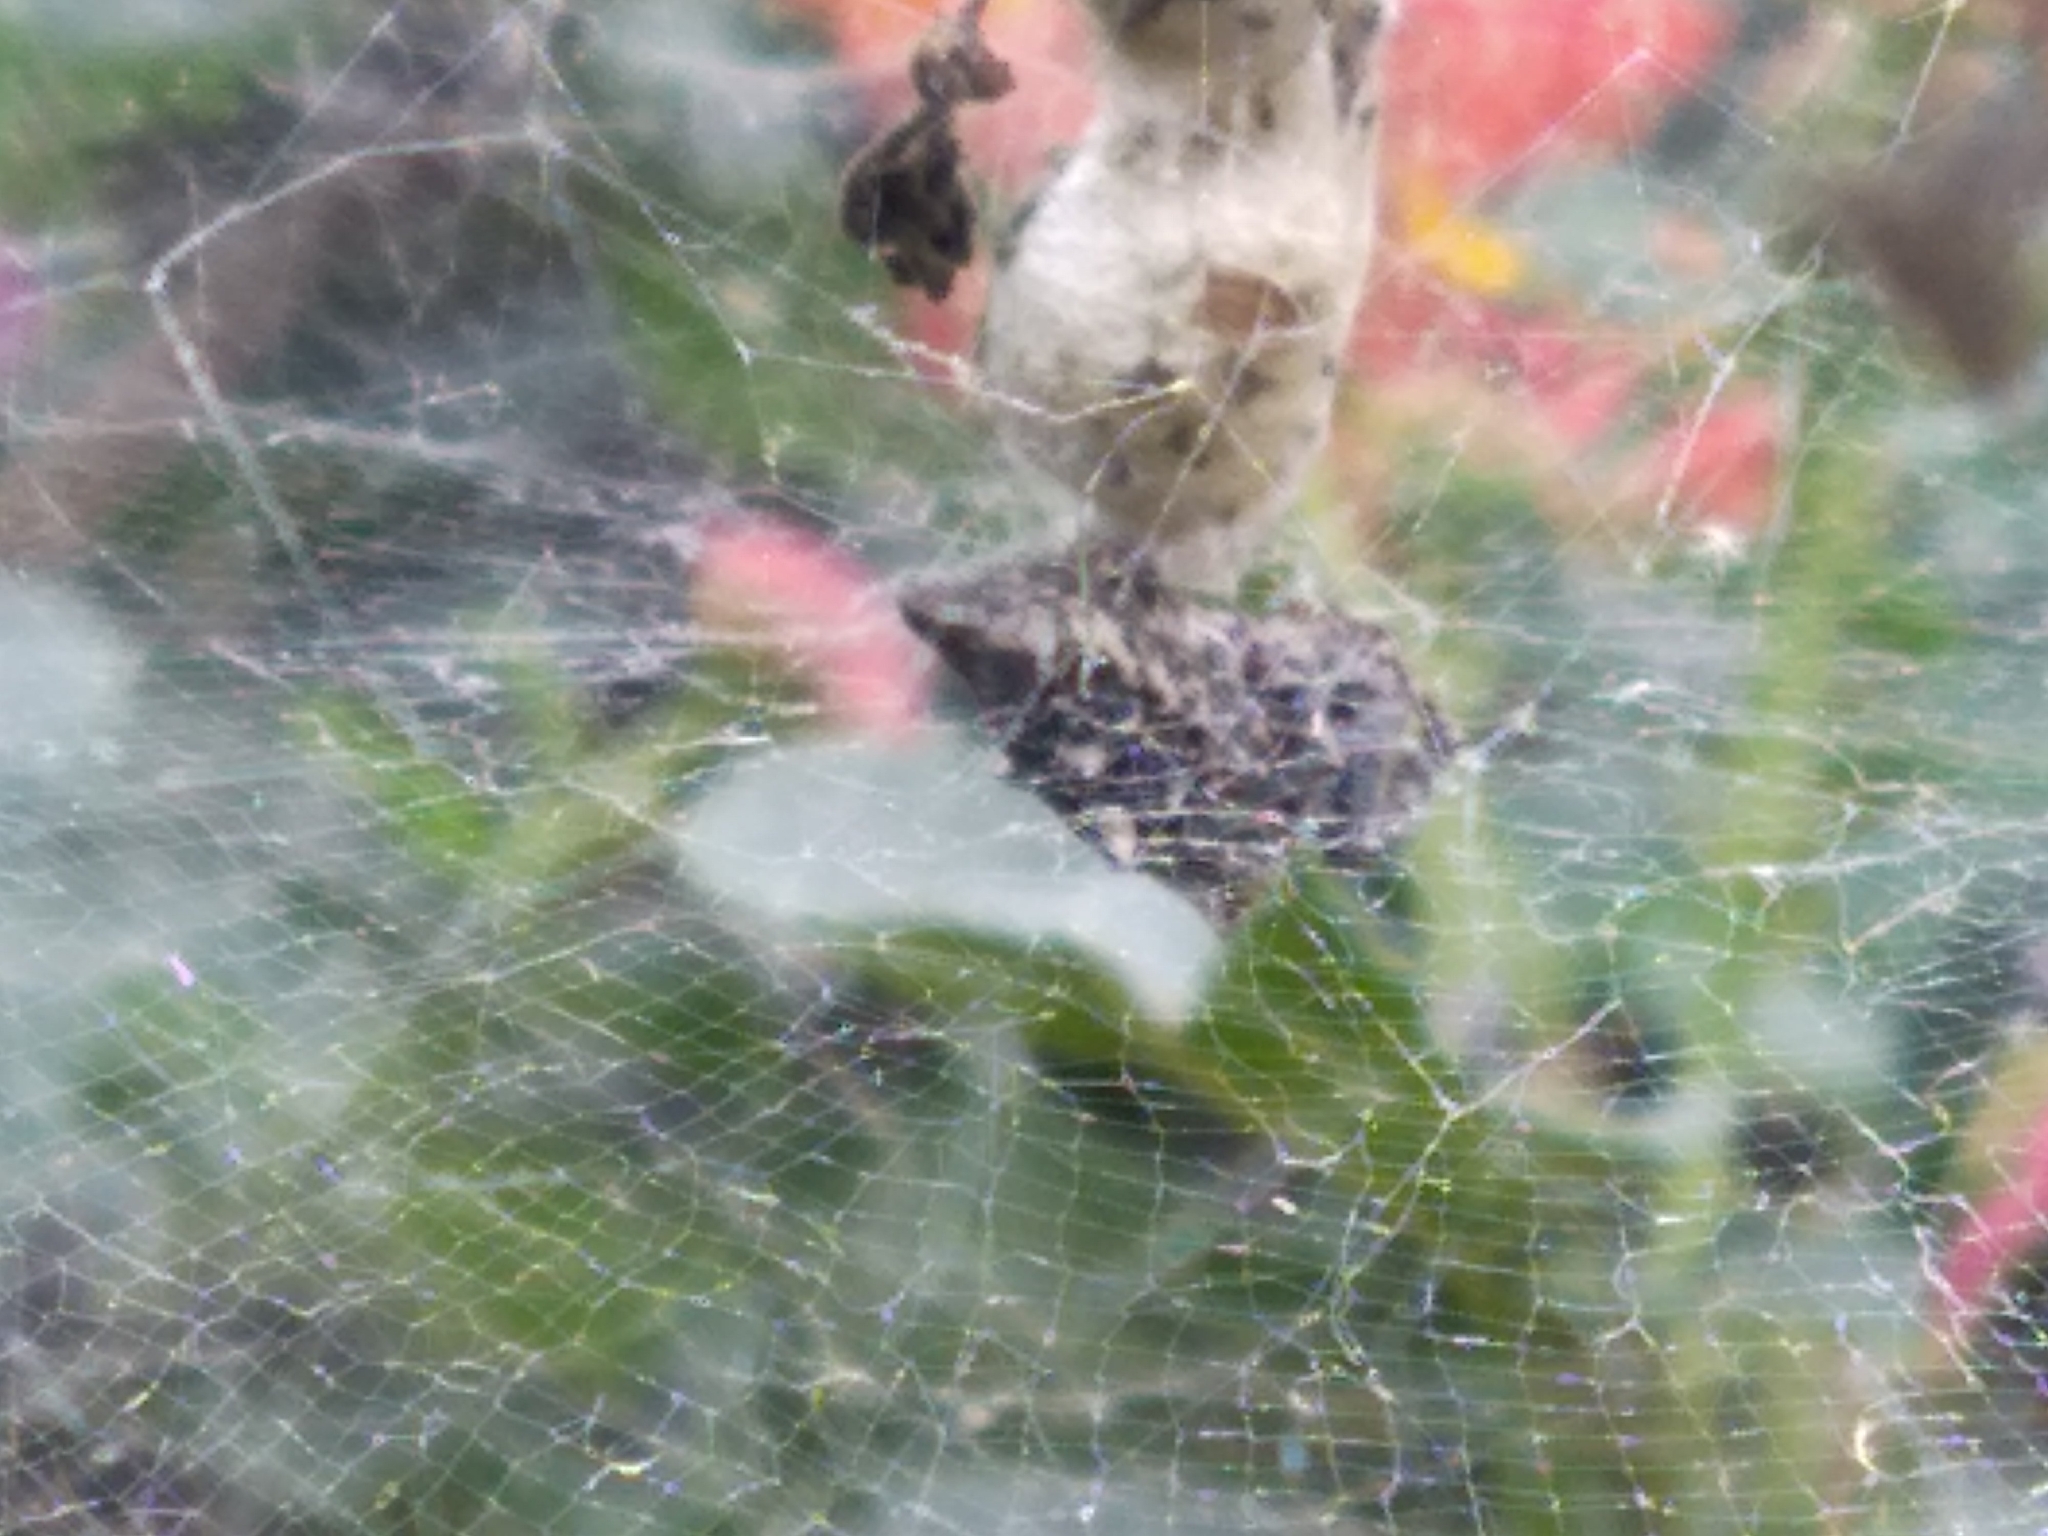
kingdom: Animalia
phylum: Arthropoda
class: Arachnida
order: Araneae
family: Araneidae
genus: Cyrtophora
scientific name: Cyrtophora citricola
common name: Orb weavers
